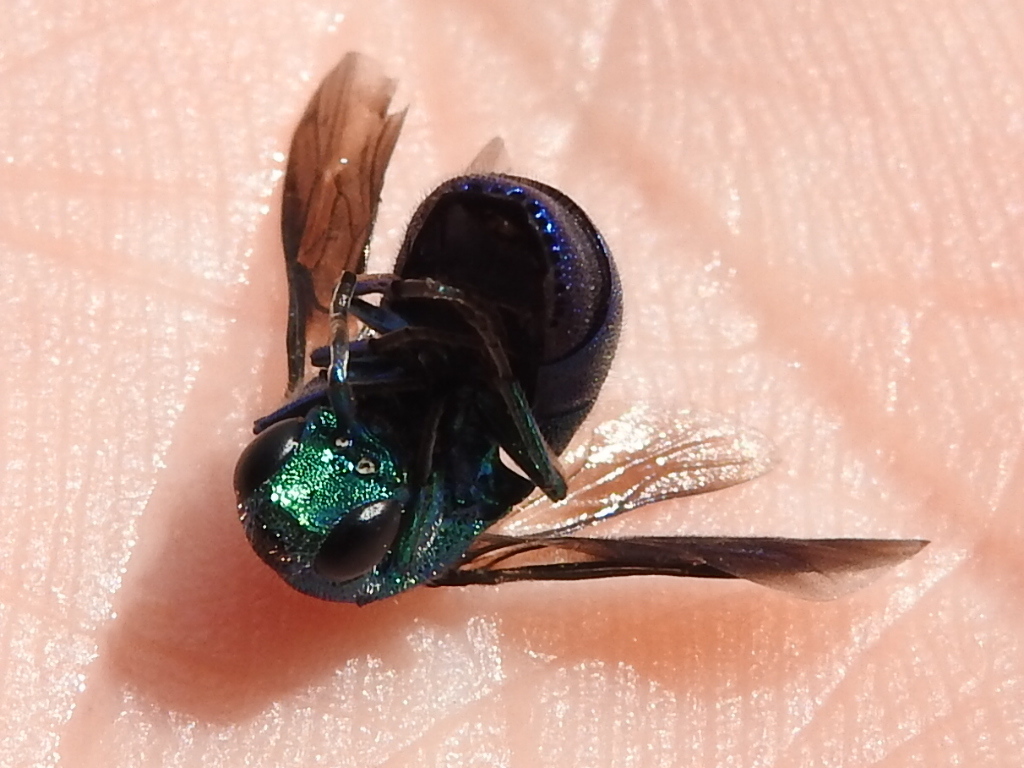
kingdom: Animalia
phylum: Arthropoda
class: Insecta
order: Hymenoptera
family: Chrysididae
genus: Chrysis
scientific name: Chrysis angolensis
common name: Cuckoo wasp
